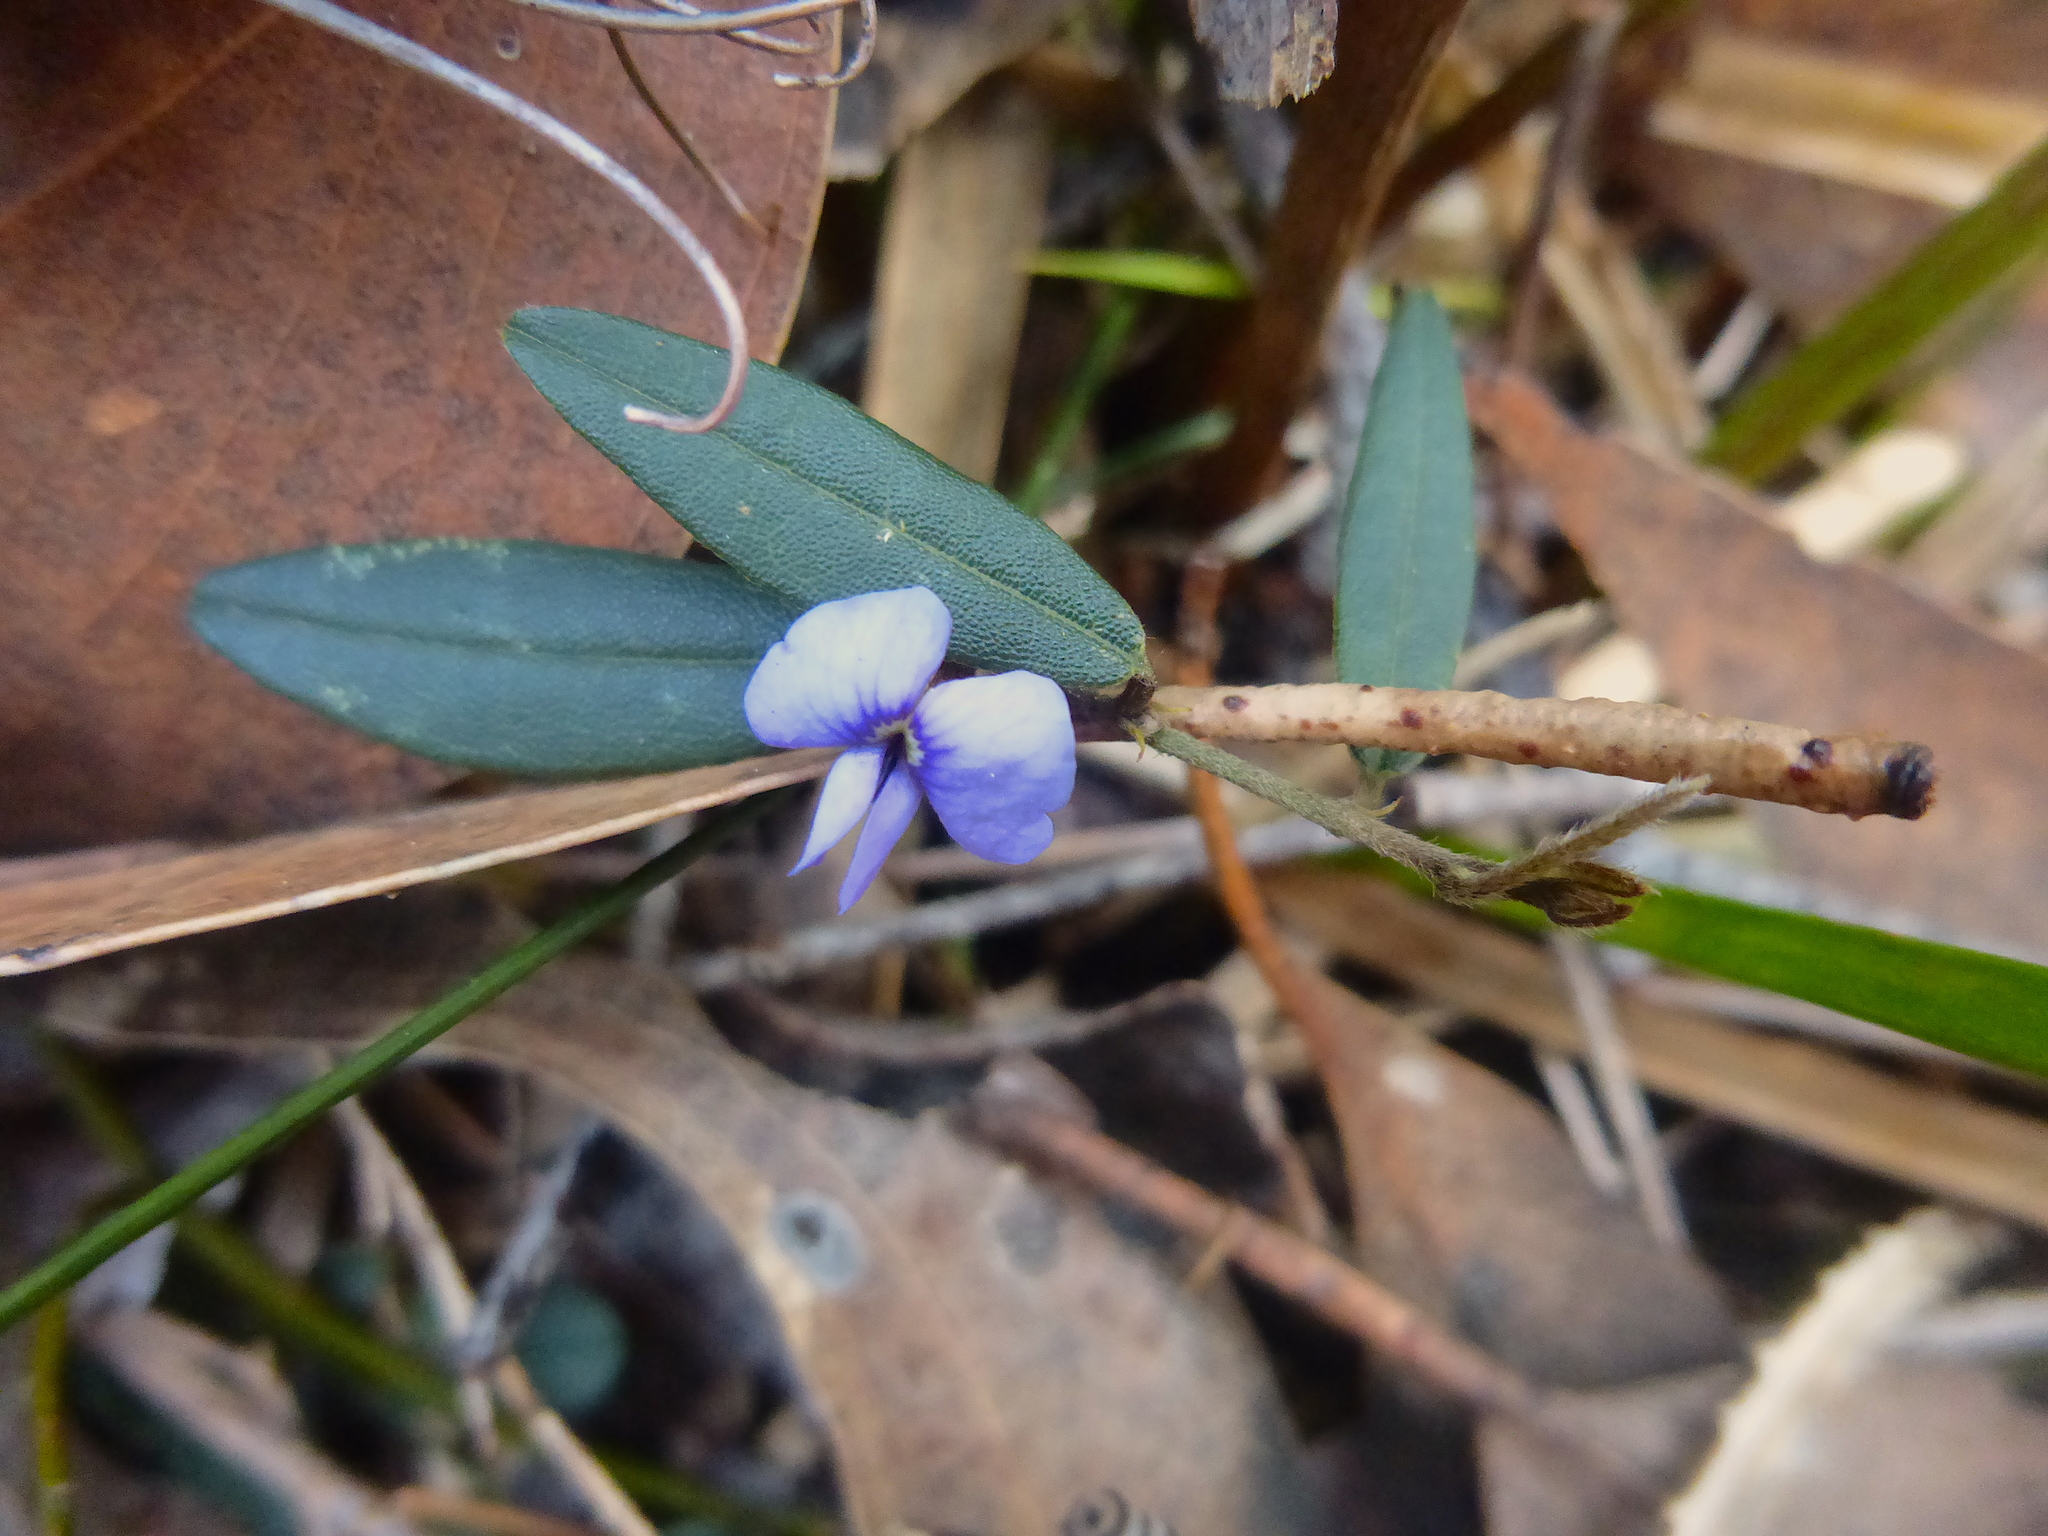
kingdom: Plantae
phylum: Tracheophyta
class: Magnoliopsida
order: Fabales
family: Fabaceae
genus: Hovea
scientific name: Hovea heterophylla
